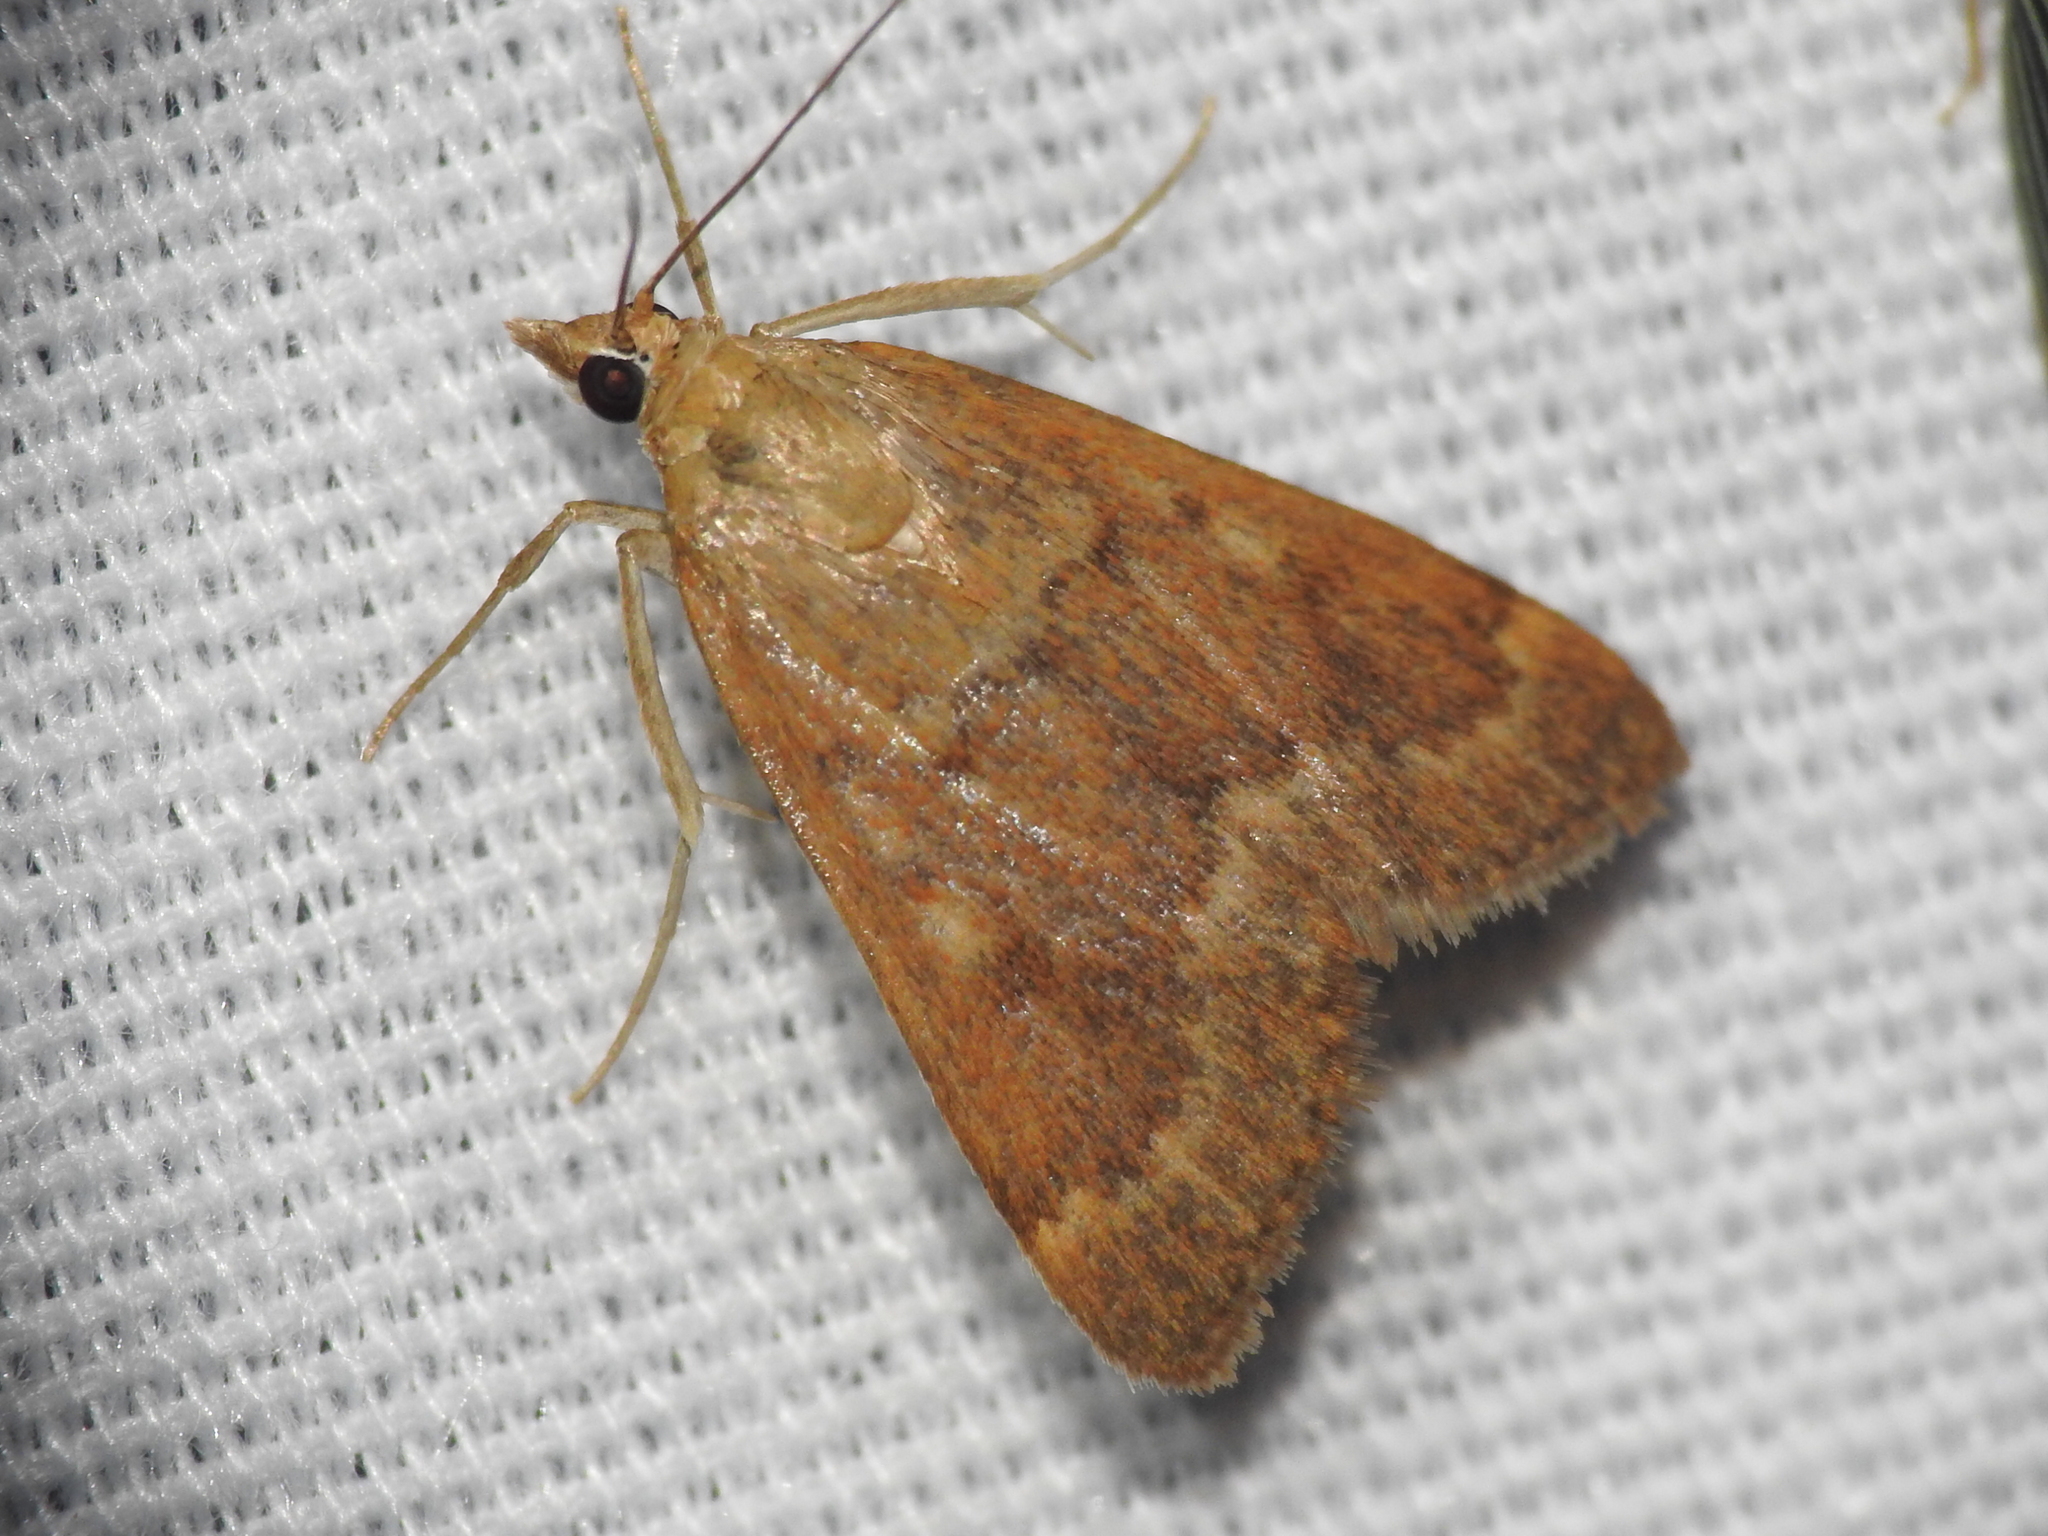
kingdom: Animalia
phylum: Arthropoda
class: Insecta
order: Lepidoptera
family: Crambidae
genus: Achyra
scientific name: Achyra rantalis
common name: Garden webworm
